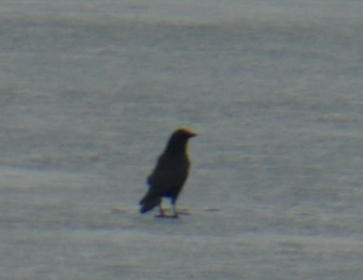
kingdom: Animalia
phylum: Chordata
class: Aves
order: Passeriformes
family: Corvidae
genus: Corvus
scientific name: Corvus brachyrhynchos
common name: American crow
